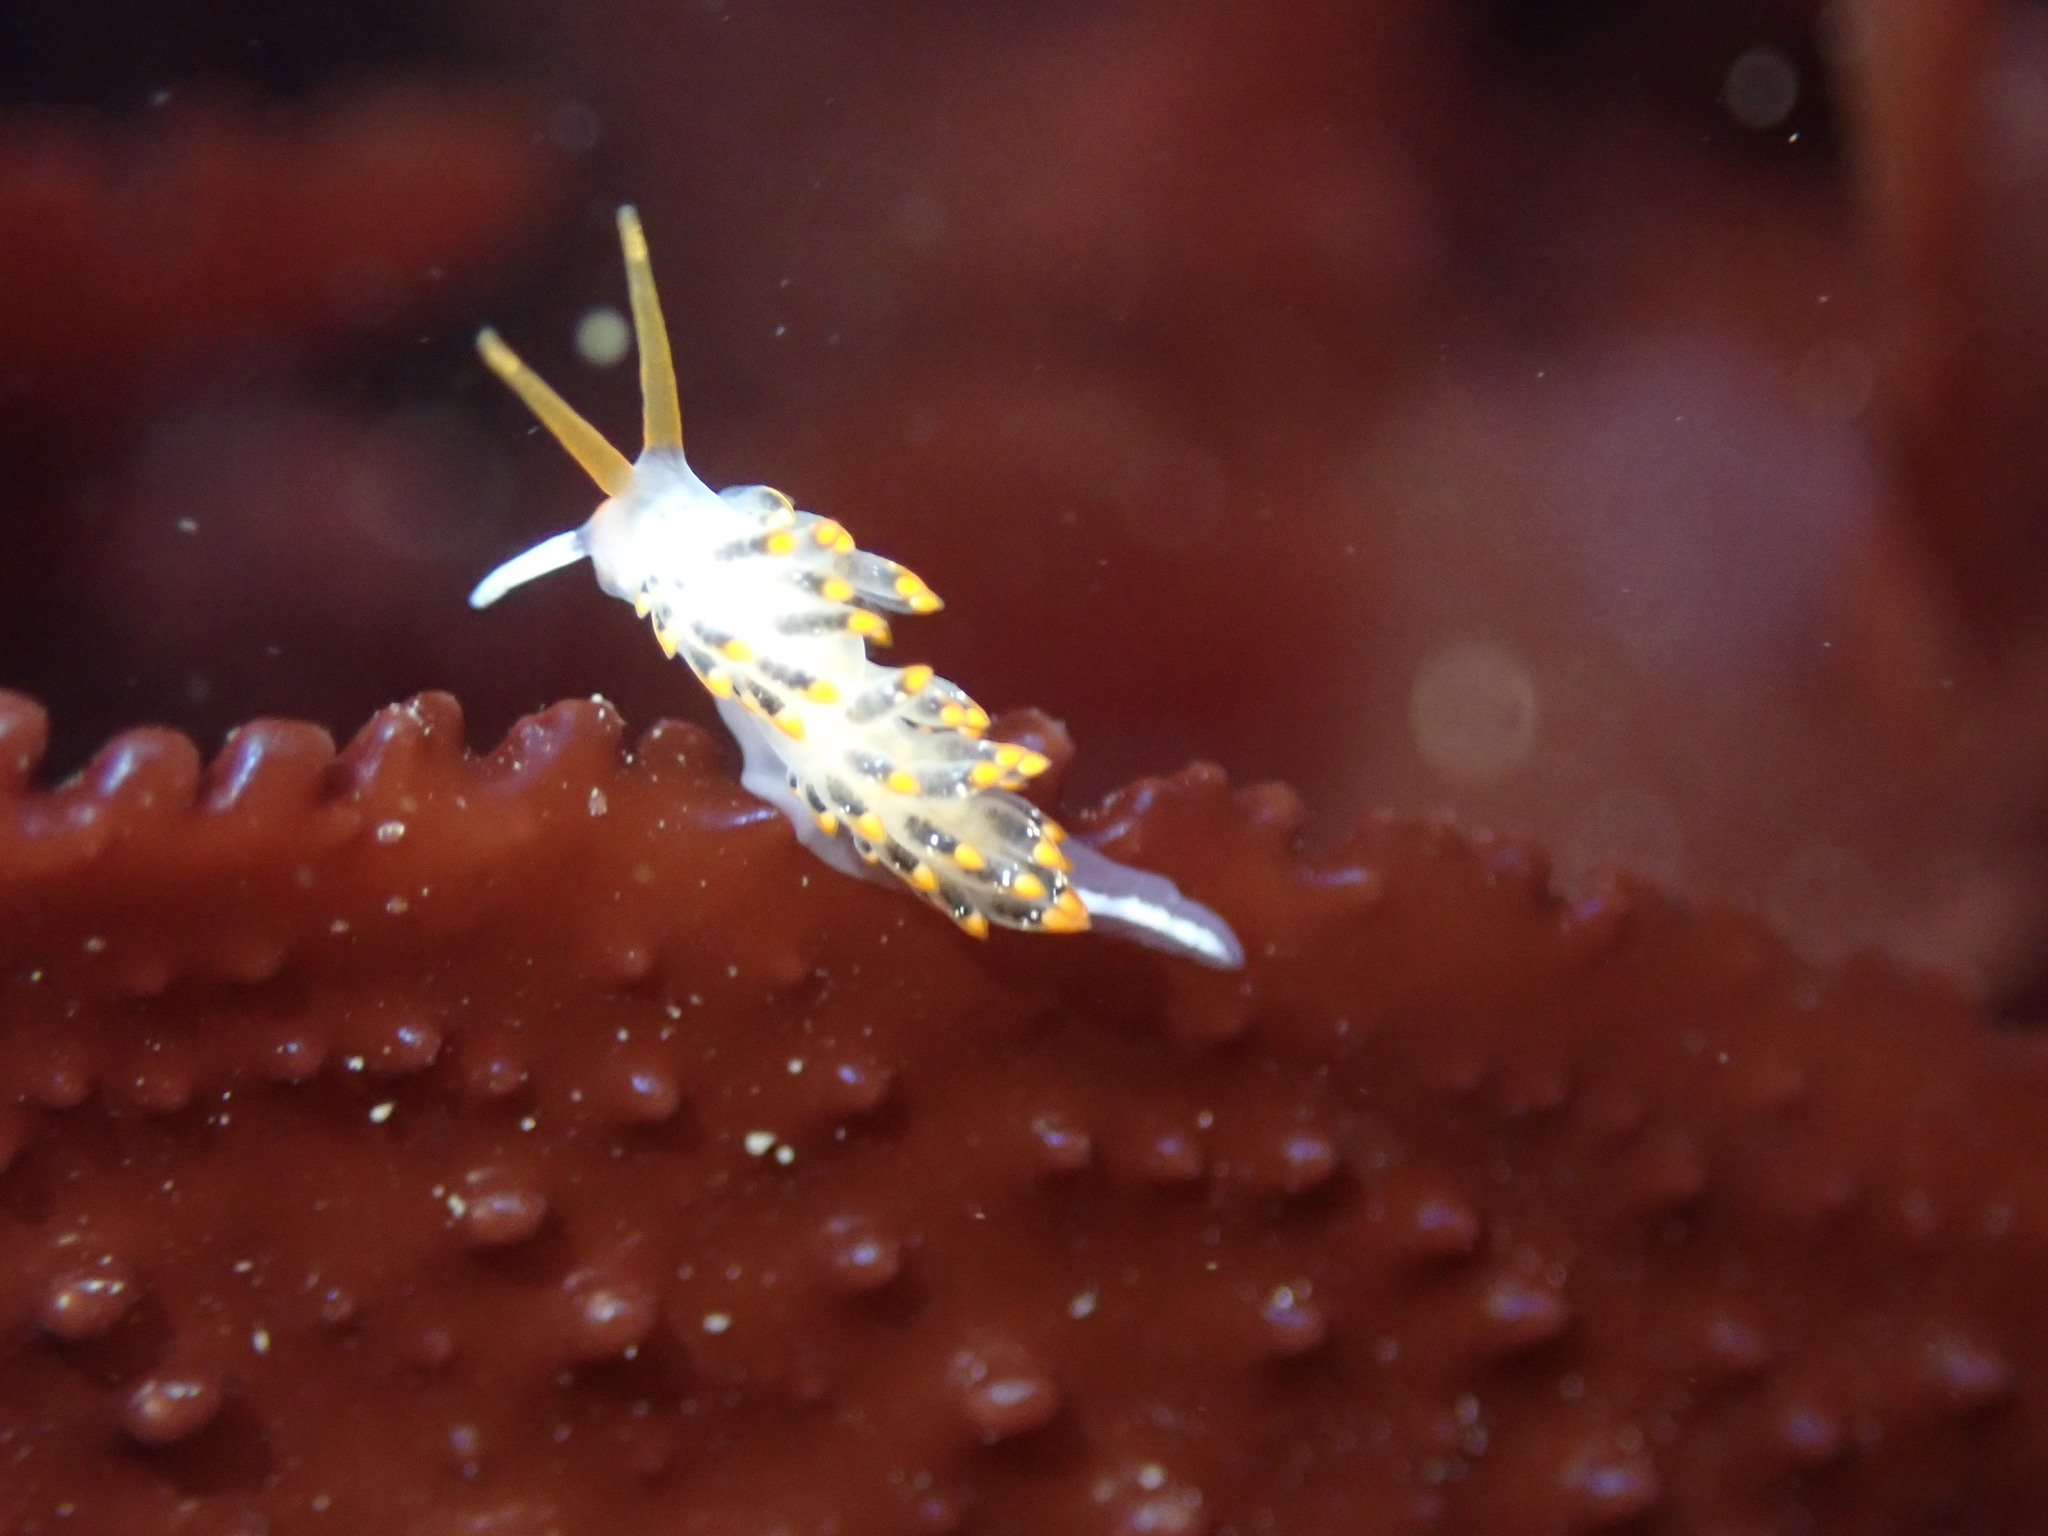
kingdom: Animalia
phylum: Mollusca
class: Gastropoda
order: Nudibranchia
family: Trinchesiidae
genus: Diaphoreolis
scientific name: Diaphoreolis lagunae
